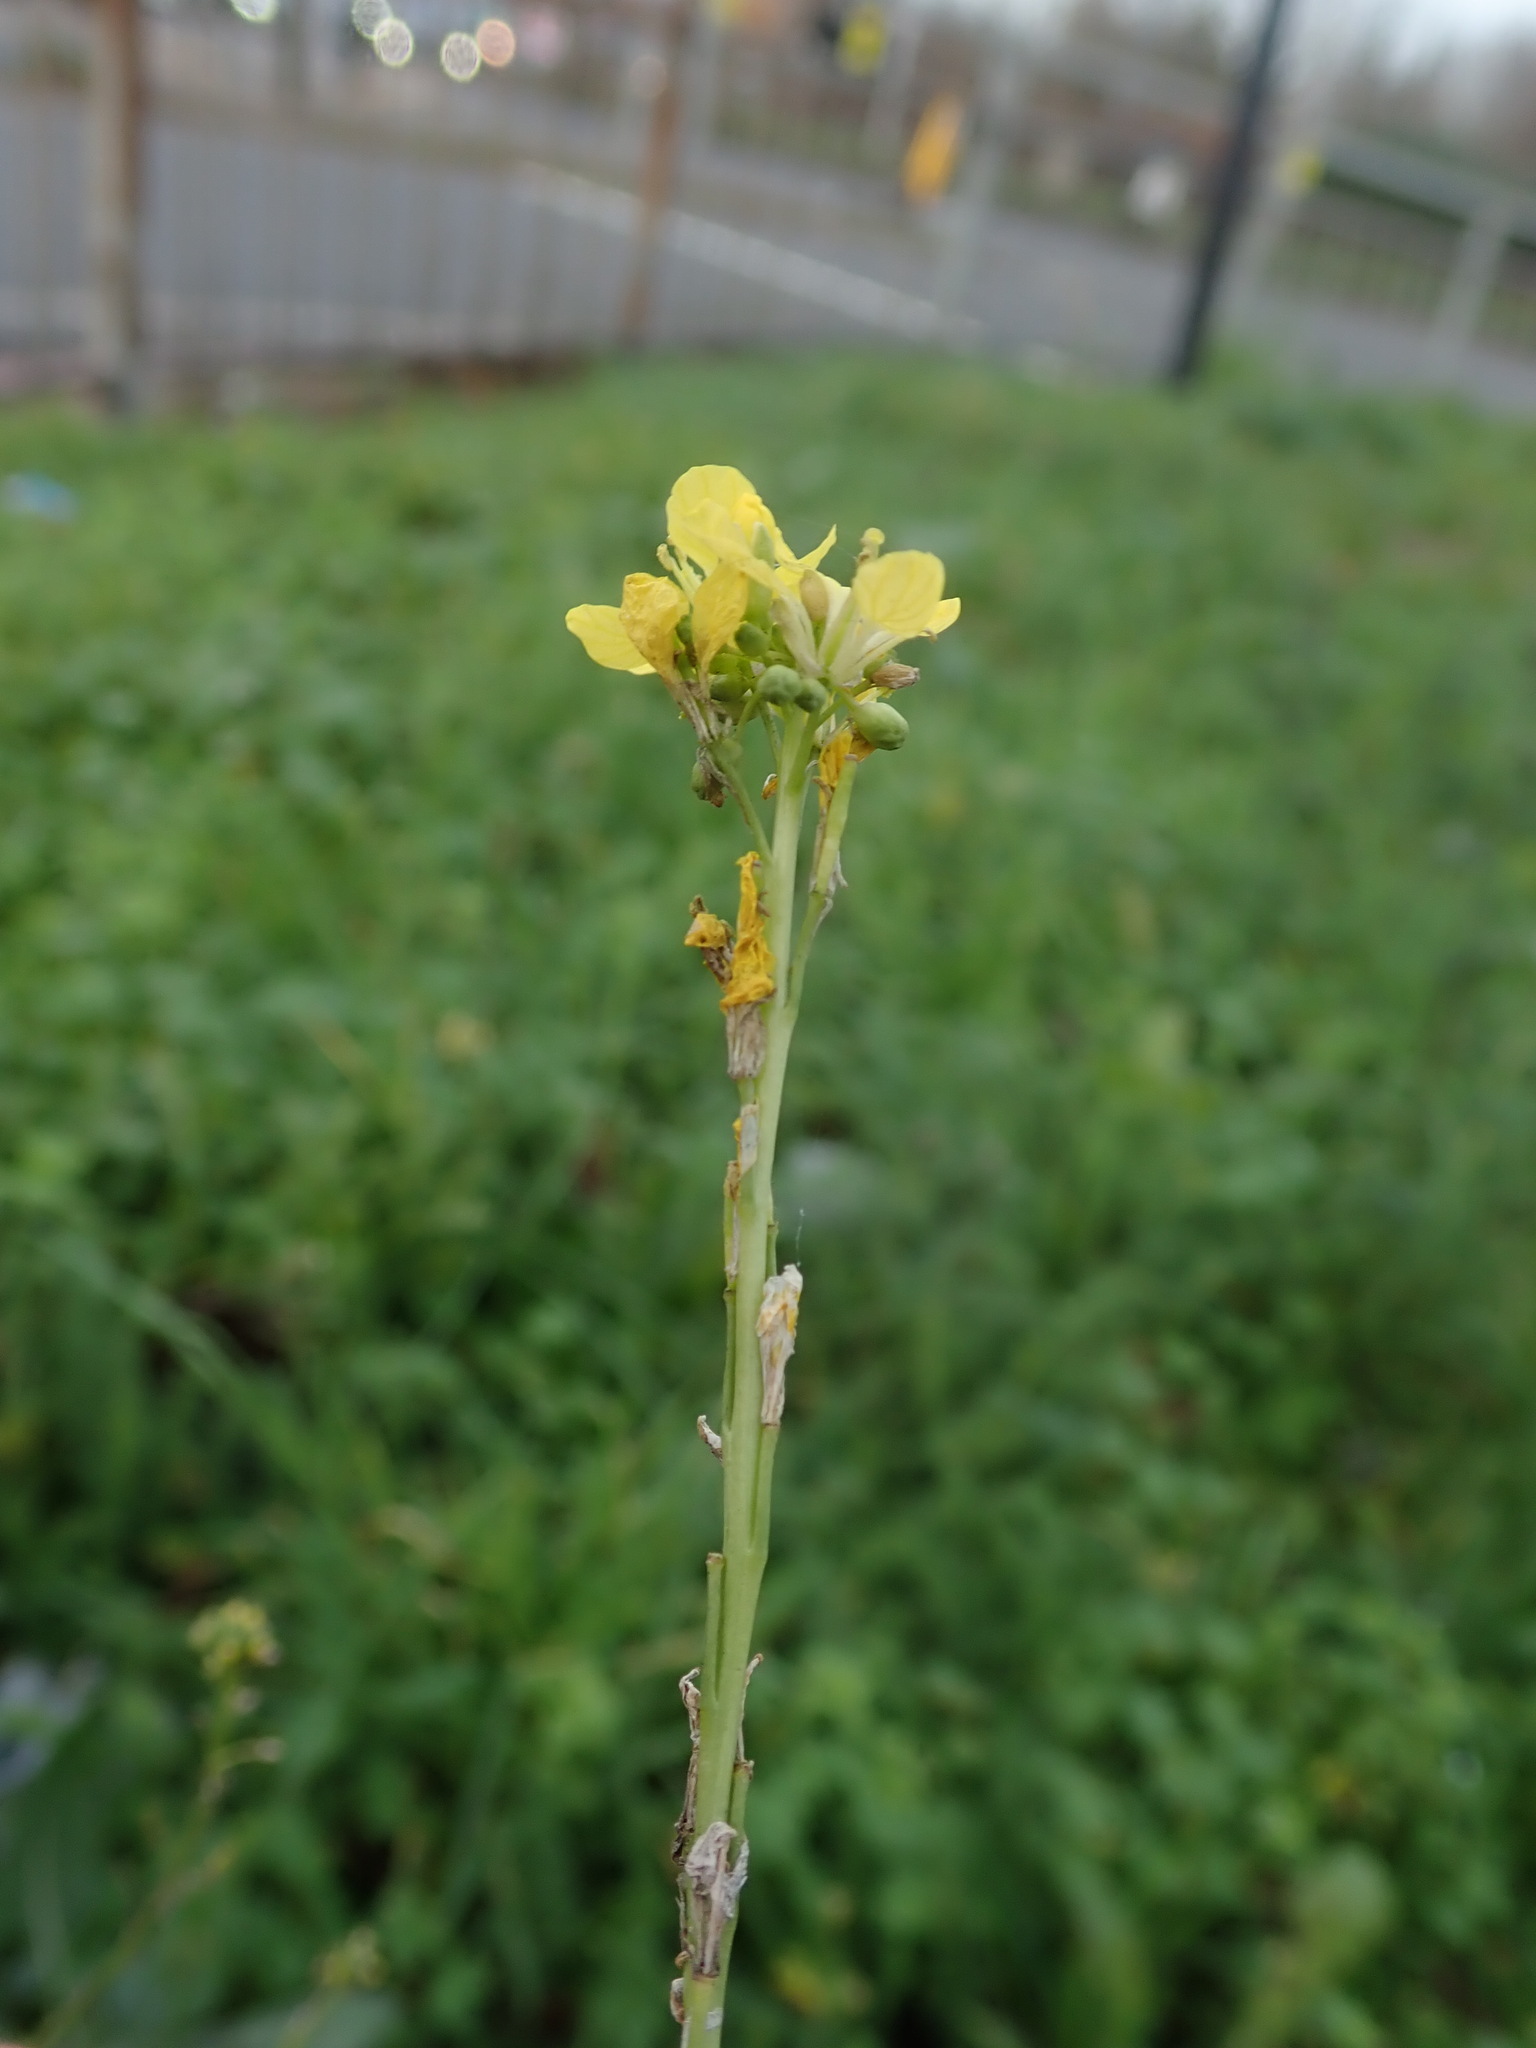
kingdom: Plantae
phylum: Tracheophyta
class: Magnoliopsida
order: Brassicales
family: Brassicaceae
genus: Hirschfeldia
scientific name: Hirschfeldia incana
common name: Hoary mustard
